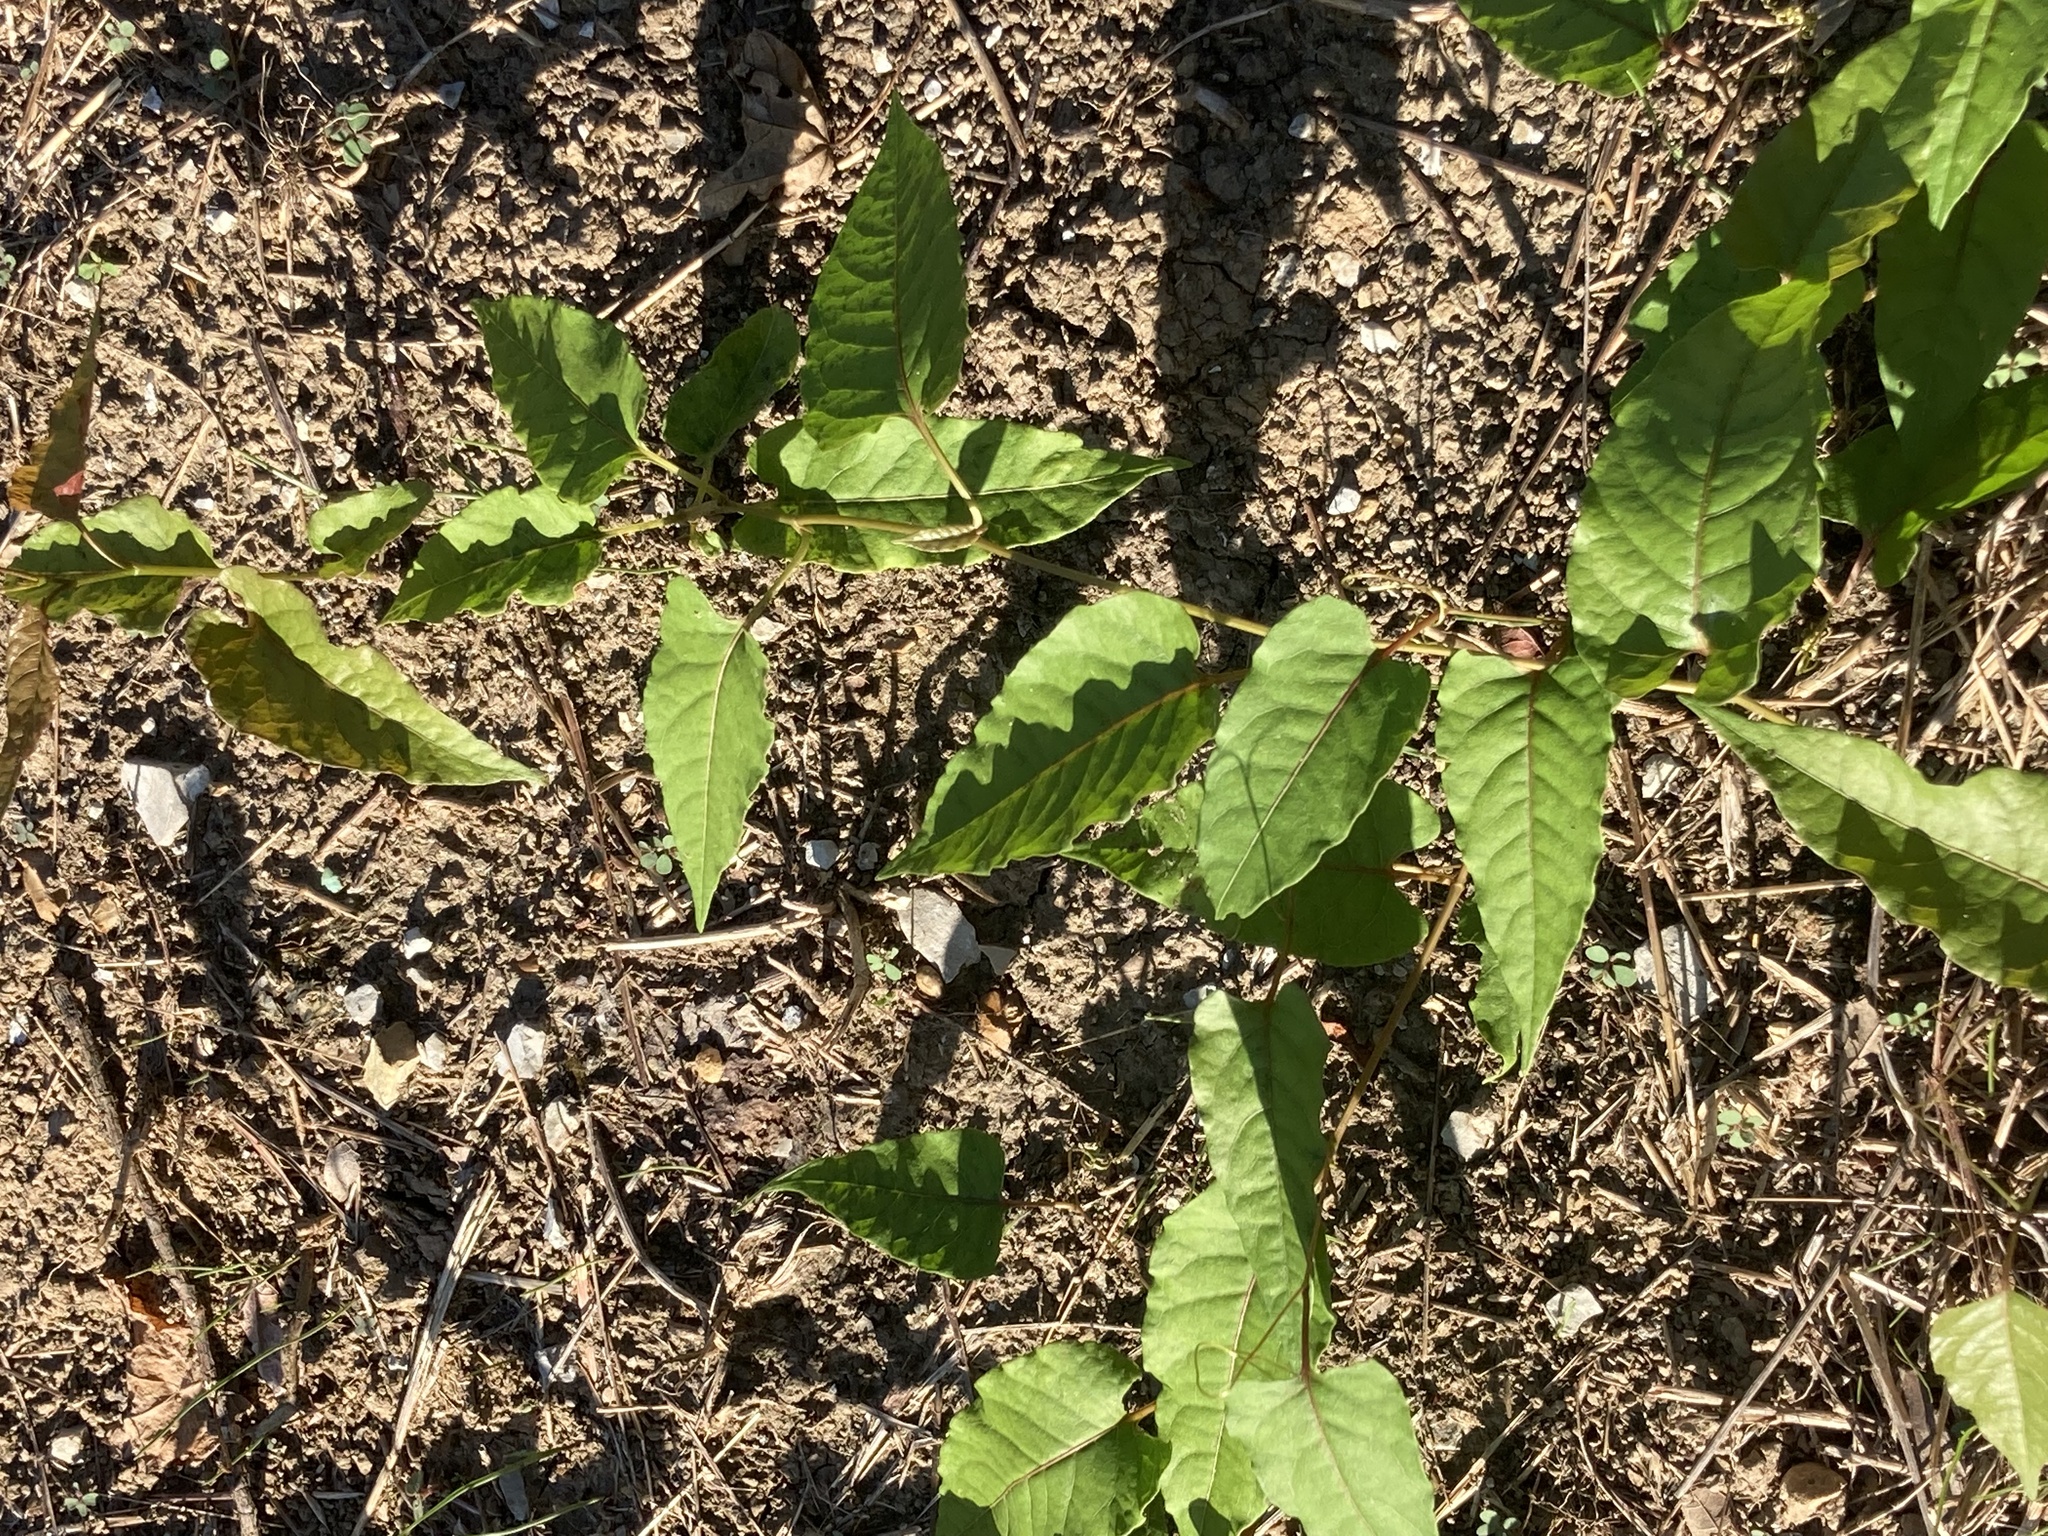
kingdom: Plantae
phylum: Tracheophyta
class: Magnoliopsida
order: Caryophyllales
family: Polygonaceae
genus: Brunnichia
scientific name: Brunnichia ovata
